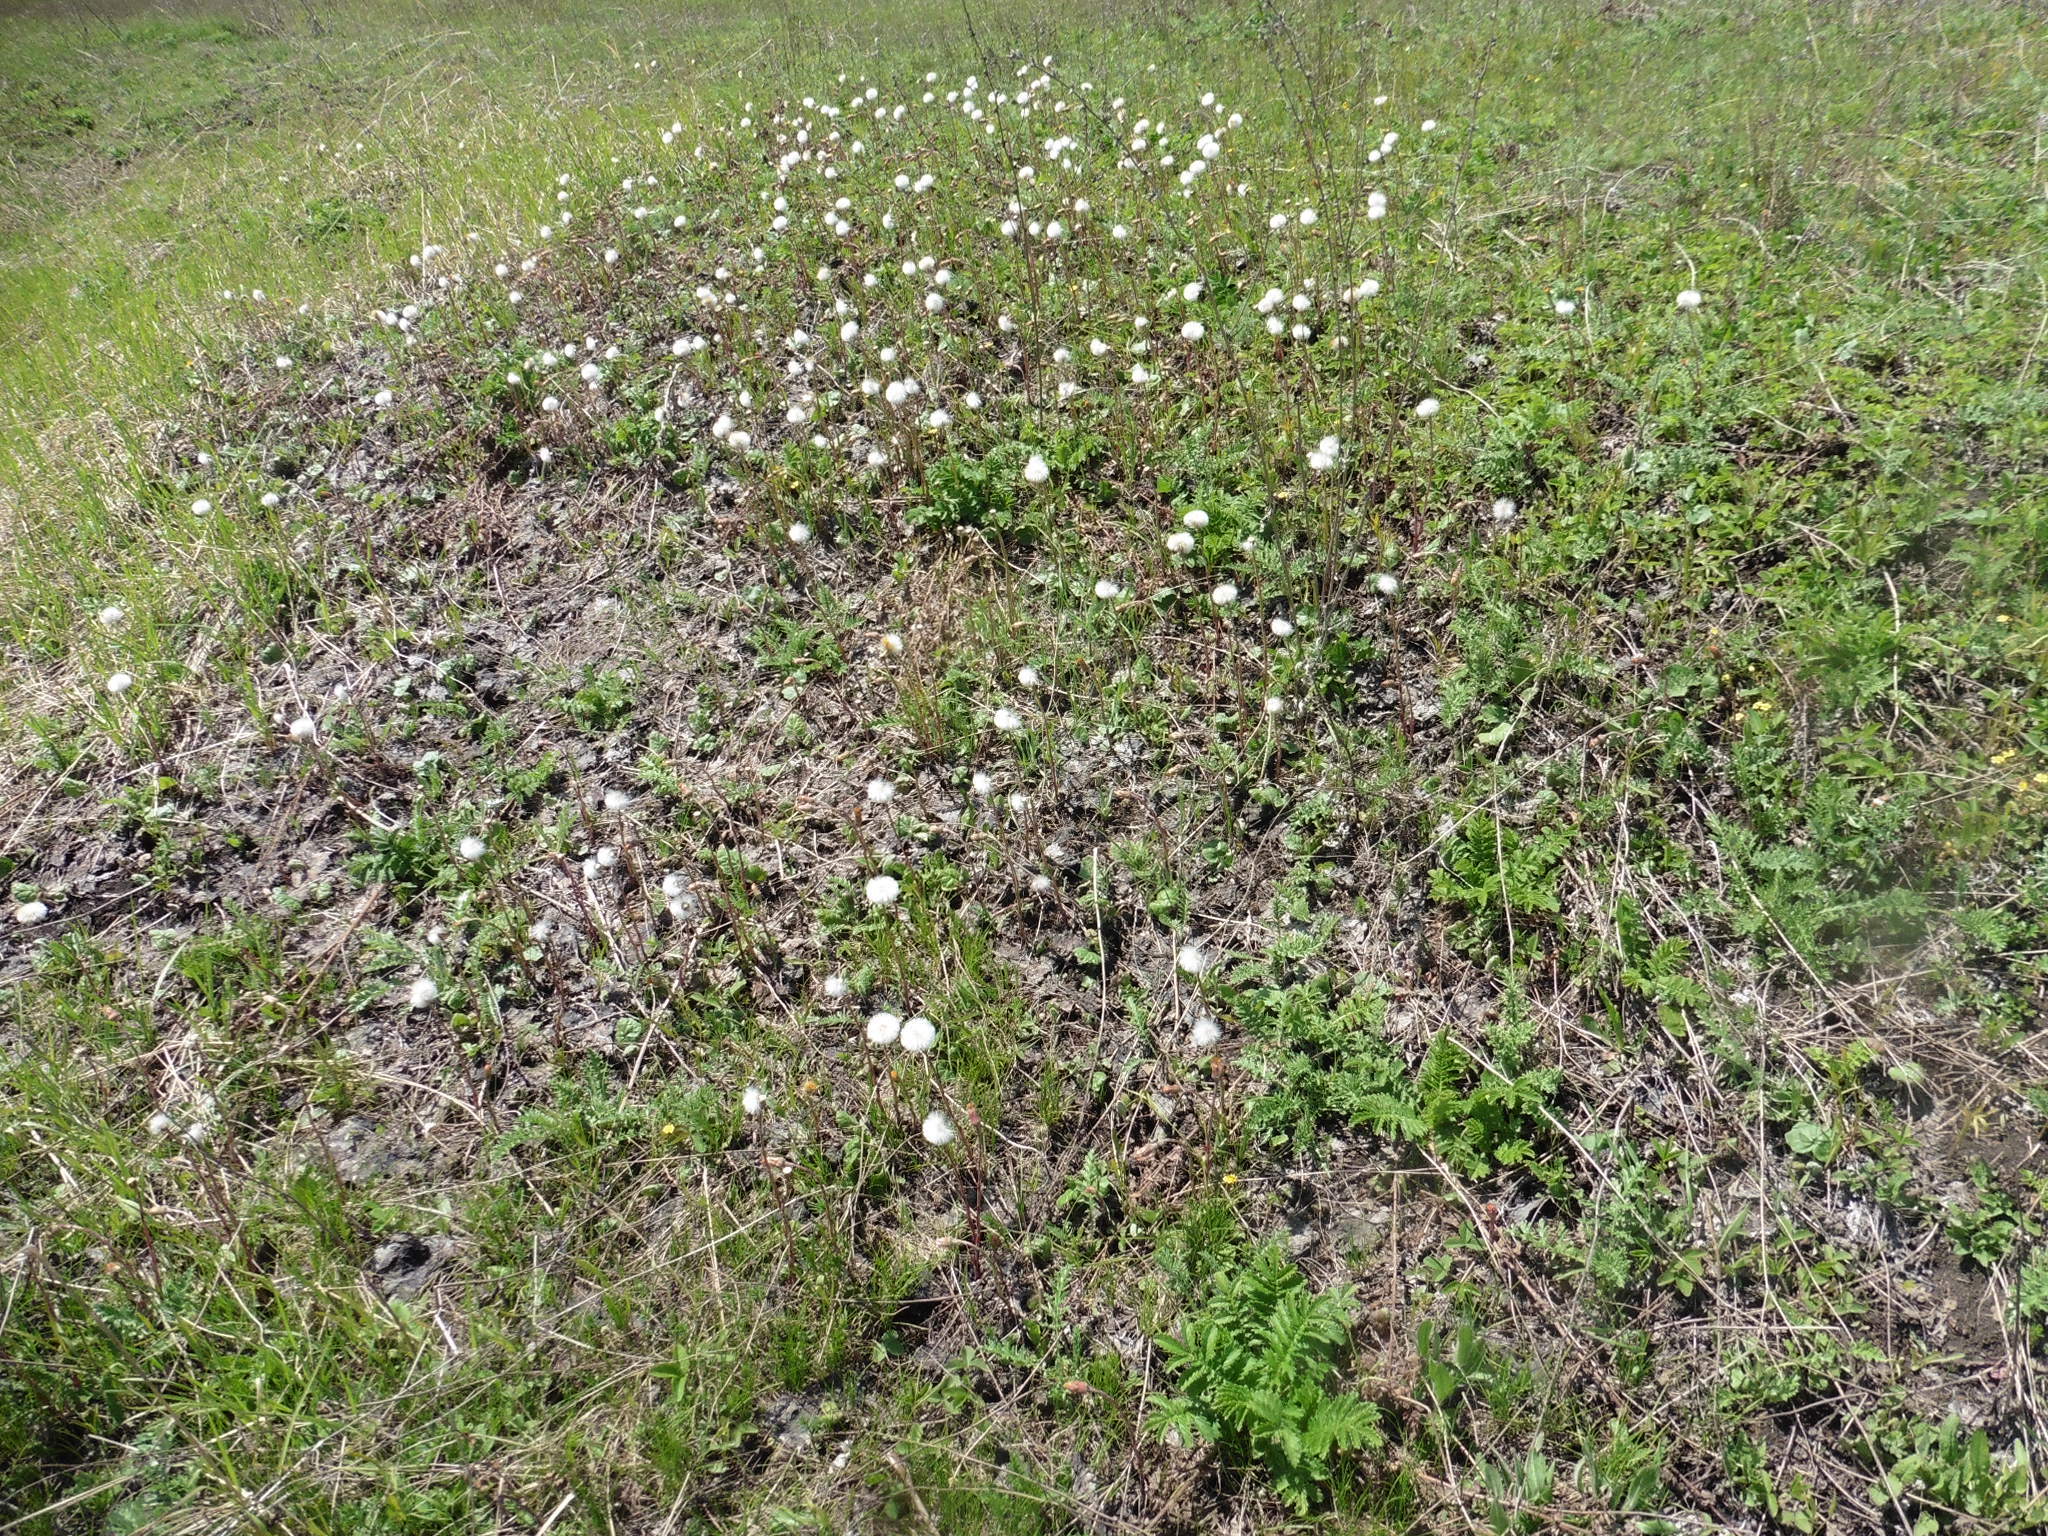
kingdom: Plantae
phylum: Tracheophyta
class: Magnoliopsida
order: Asterales
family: Asteraceae
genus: Tussilago
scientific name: Tussilago farfara
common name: Coltsfoot
